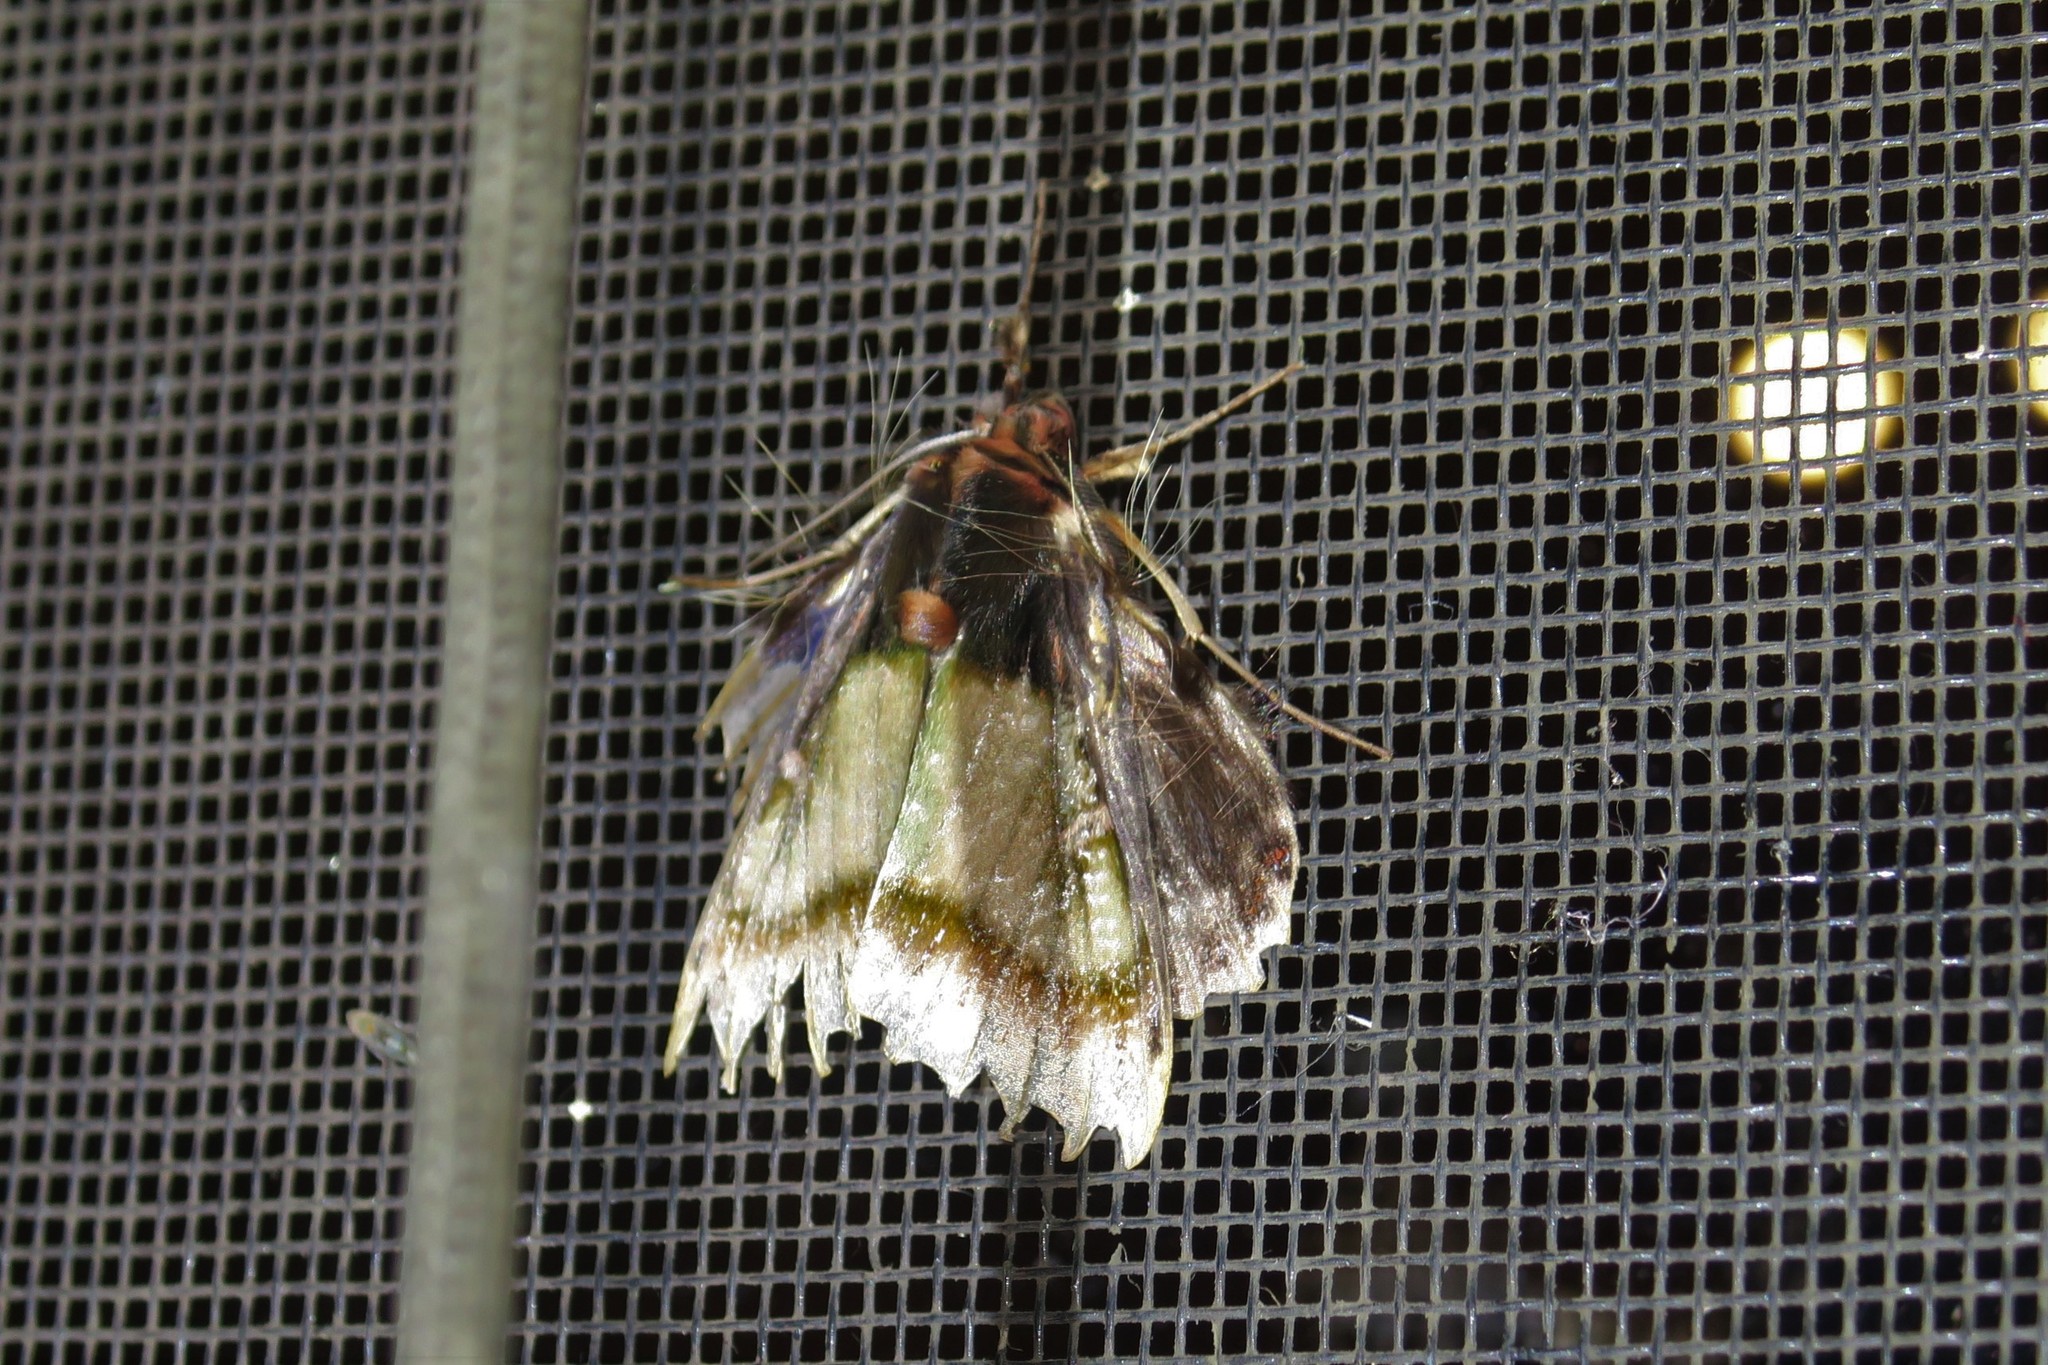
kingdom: Animalia
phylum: Arthropoda
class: Insecta
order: Lepidoptera
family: Erebidae
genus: Ceroctena
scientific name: Ceroctena amynta
